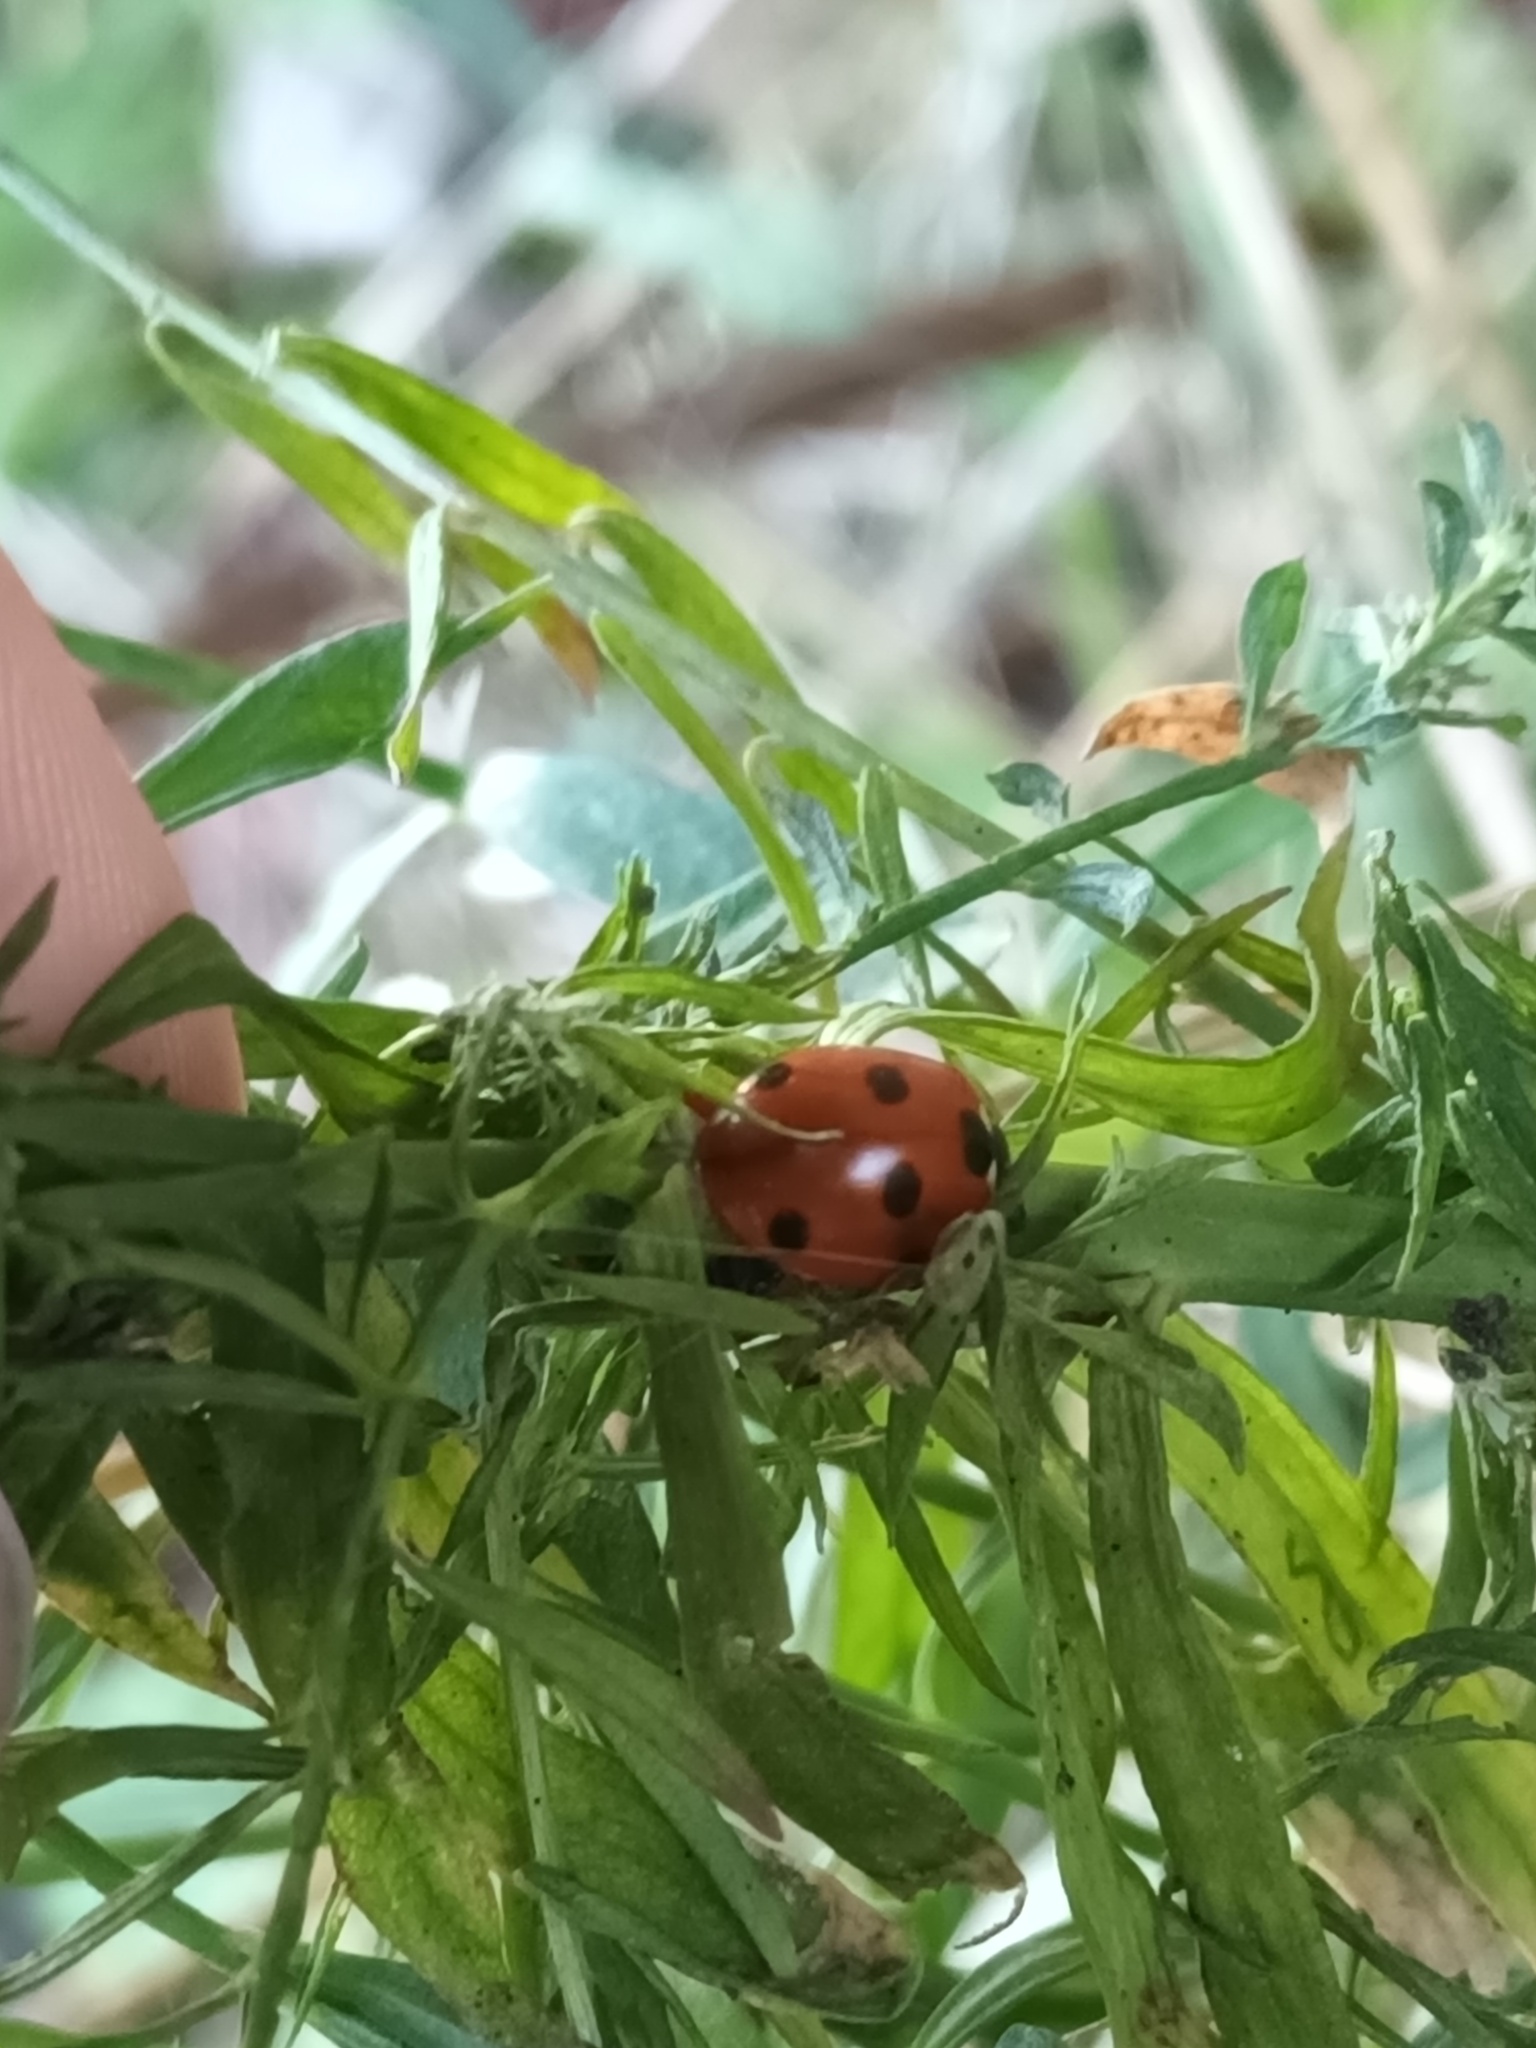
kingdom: Animalia
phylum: Arthropoda
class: Insecta
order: Coleoptera
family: Coccinellidae
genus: Coccinella
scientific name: Coccinella septempunctata
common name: Sevenspotted lady beetle
